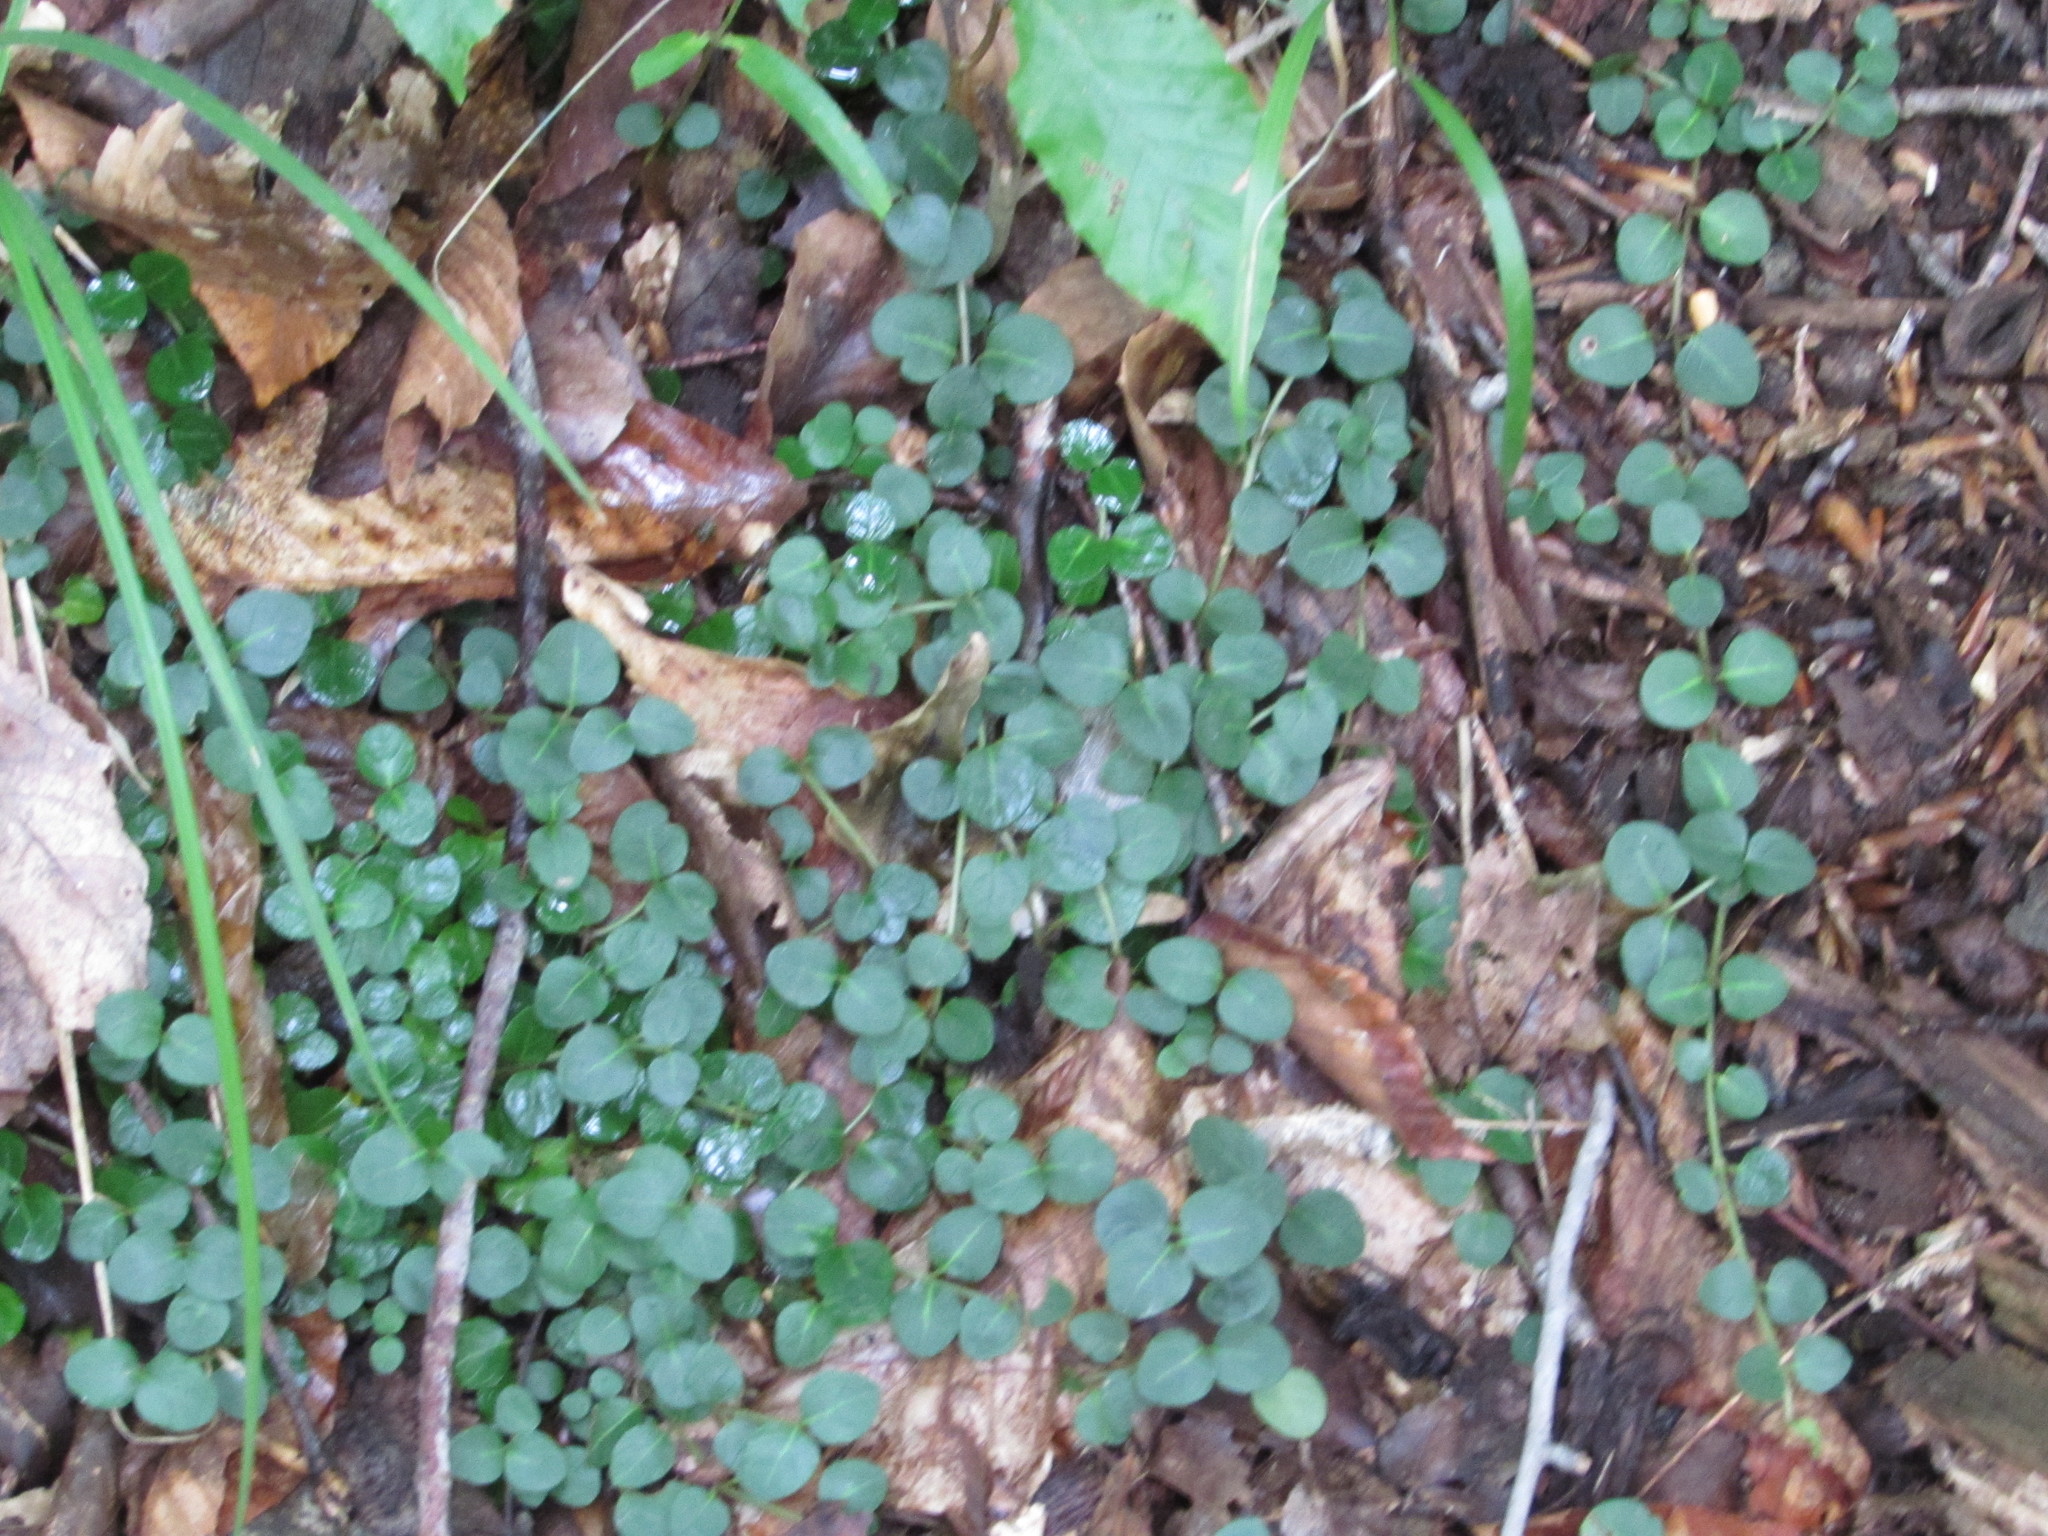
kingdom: Plantae
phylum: Tracheophyta
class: Magnoliopsida
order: Gentianales
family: Rubiaceae
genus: Mitchella
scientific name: Mitchella repens
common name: Partridge-berry
